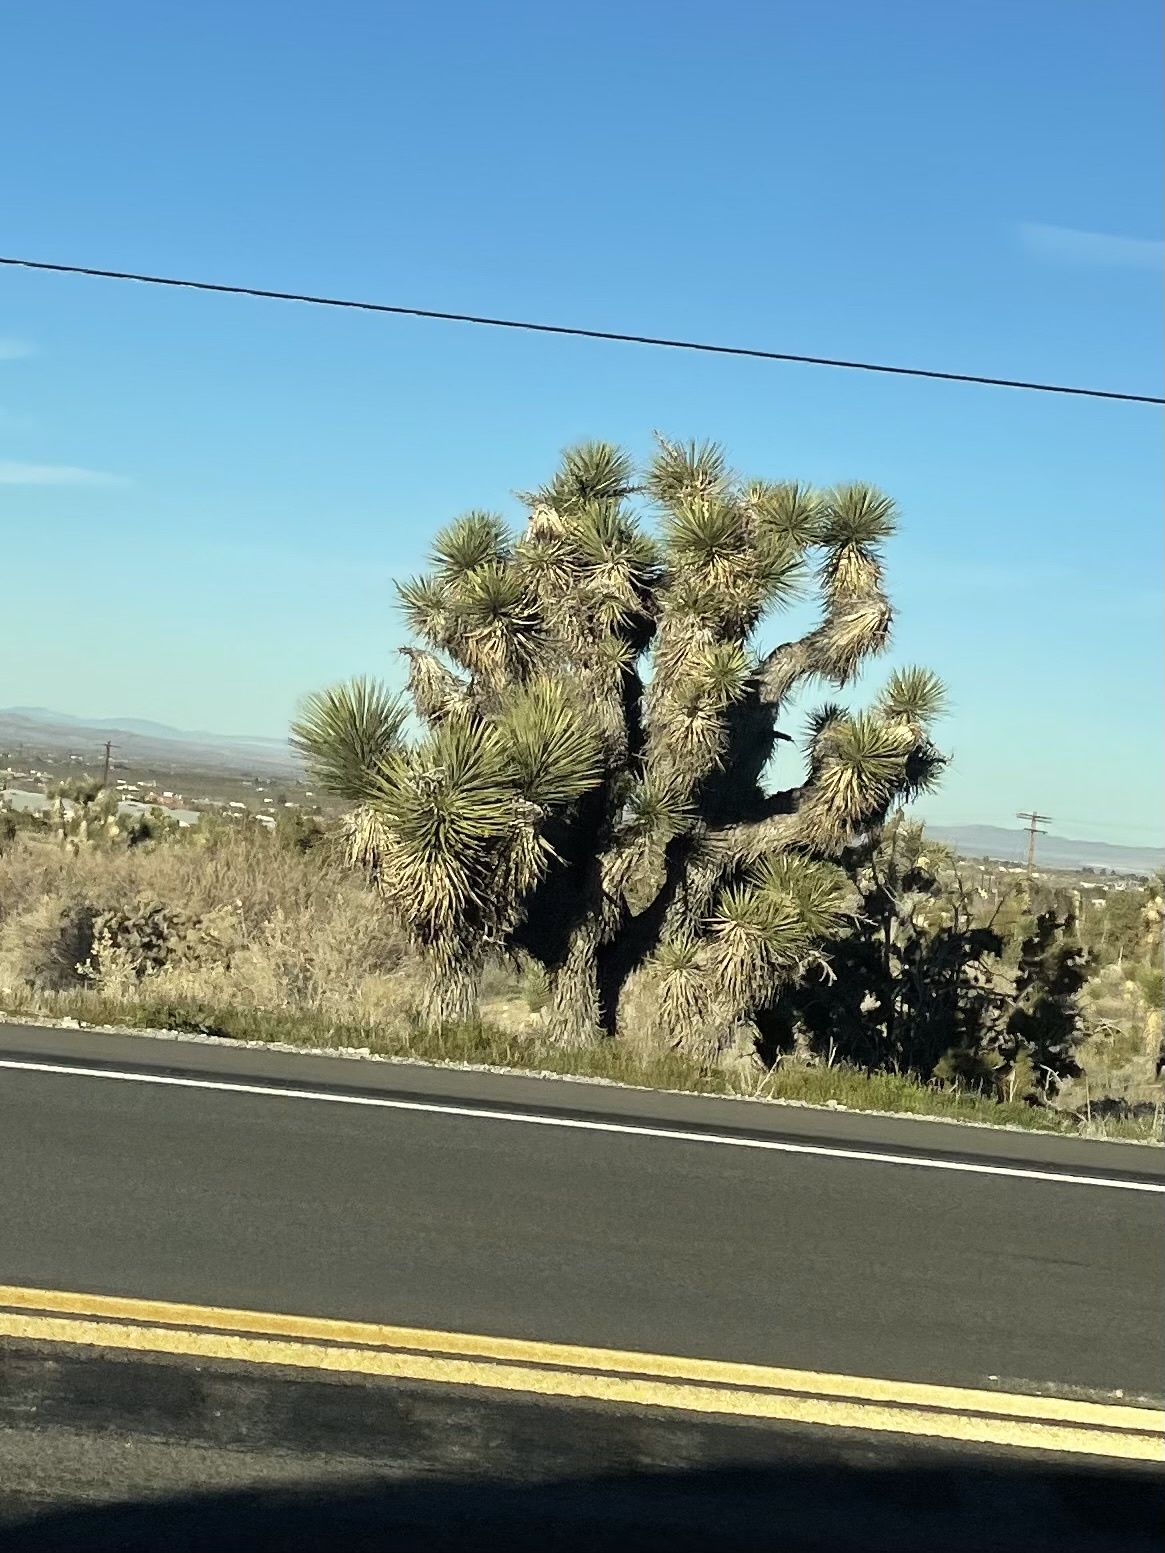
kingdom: Plantae
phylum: Tracheophyta
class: Liliopsida
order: Asparagales
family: Asparagaceae
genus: Yucca
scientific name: Yucca brevifolia
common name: Joshua tree
